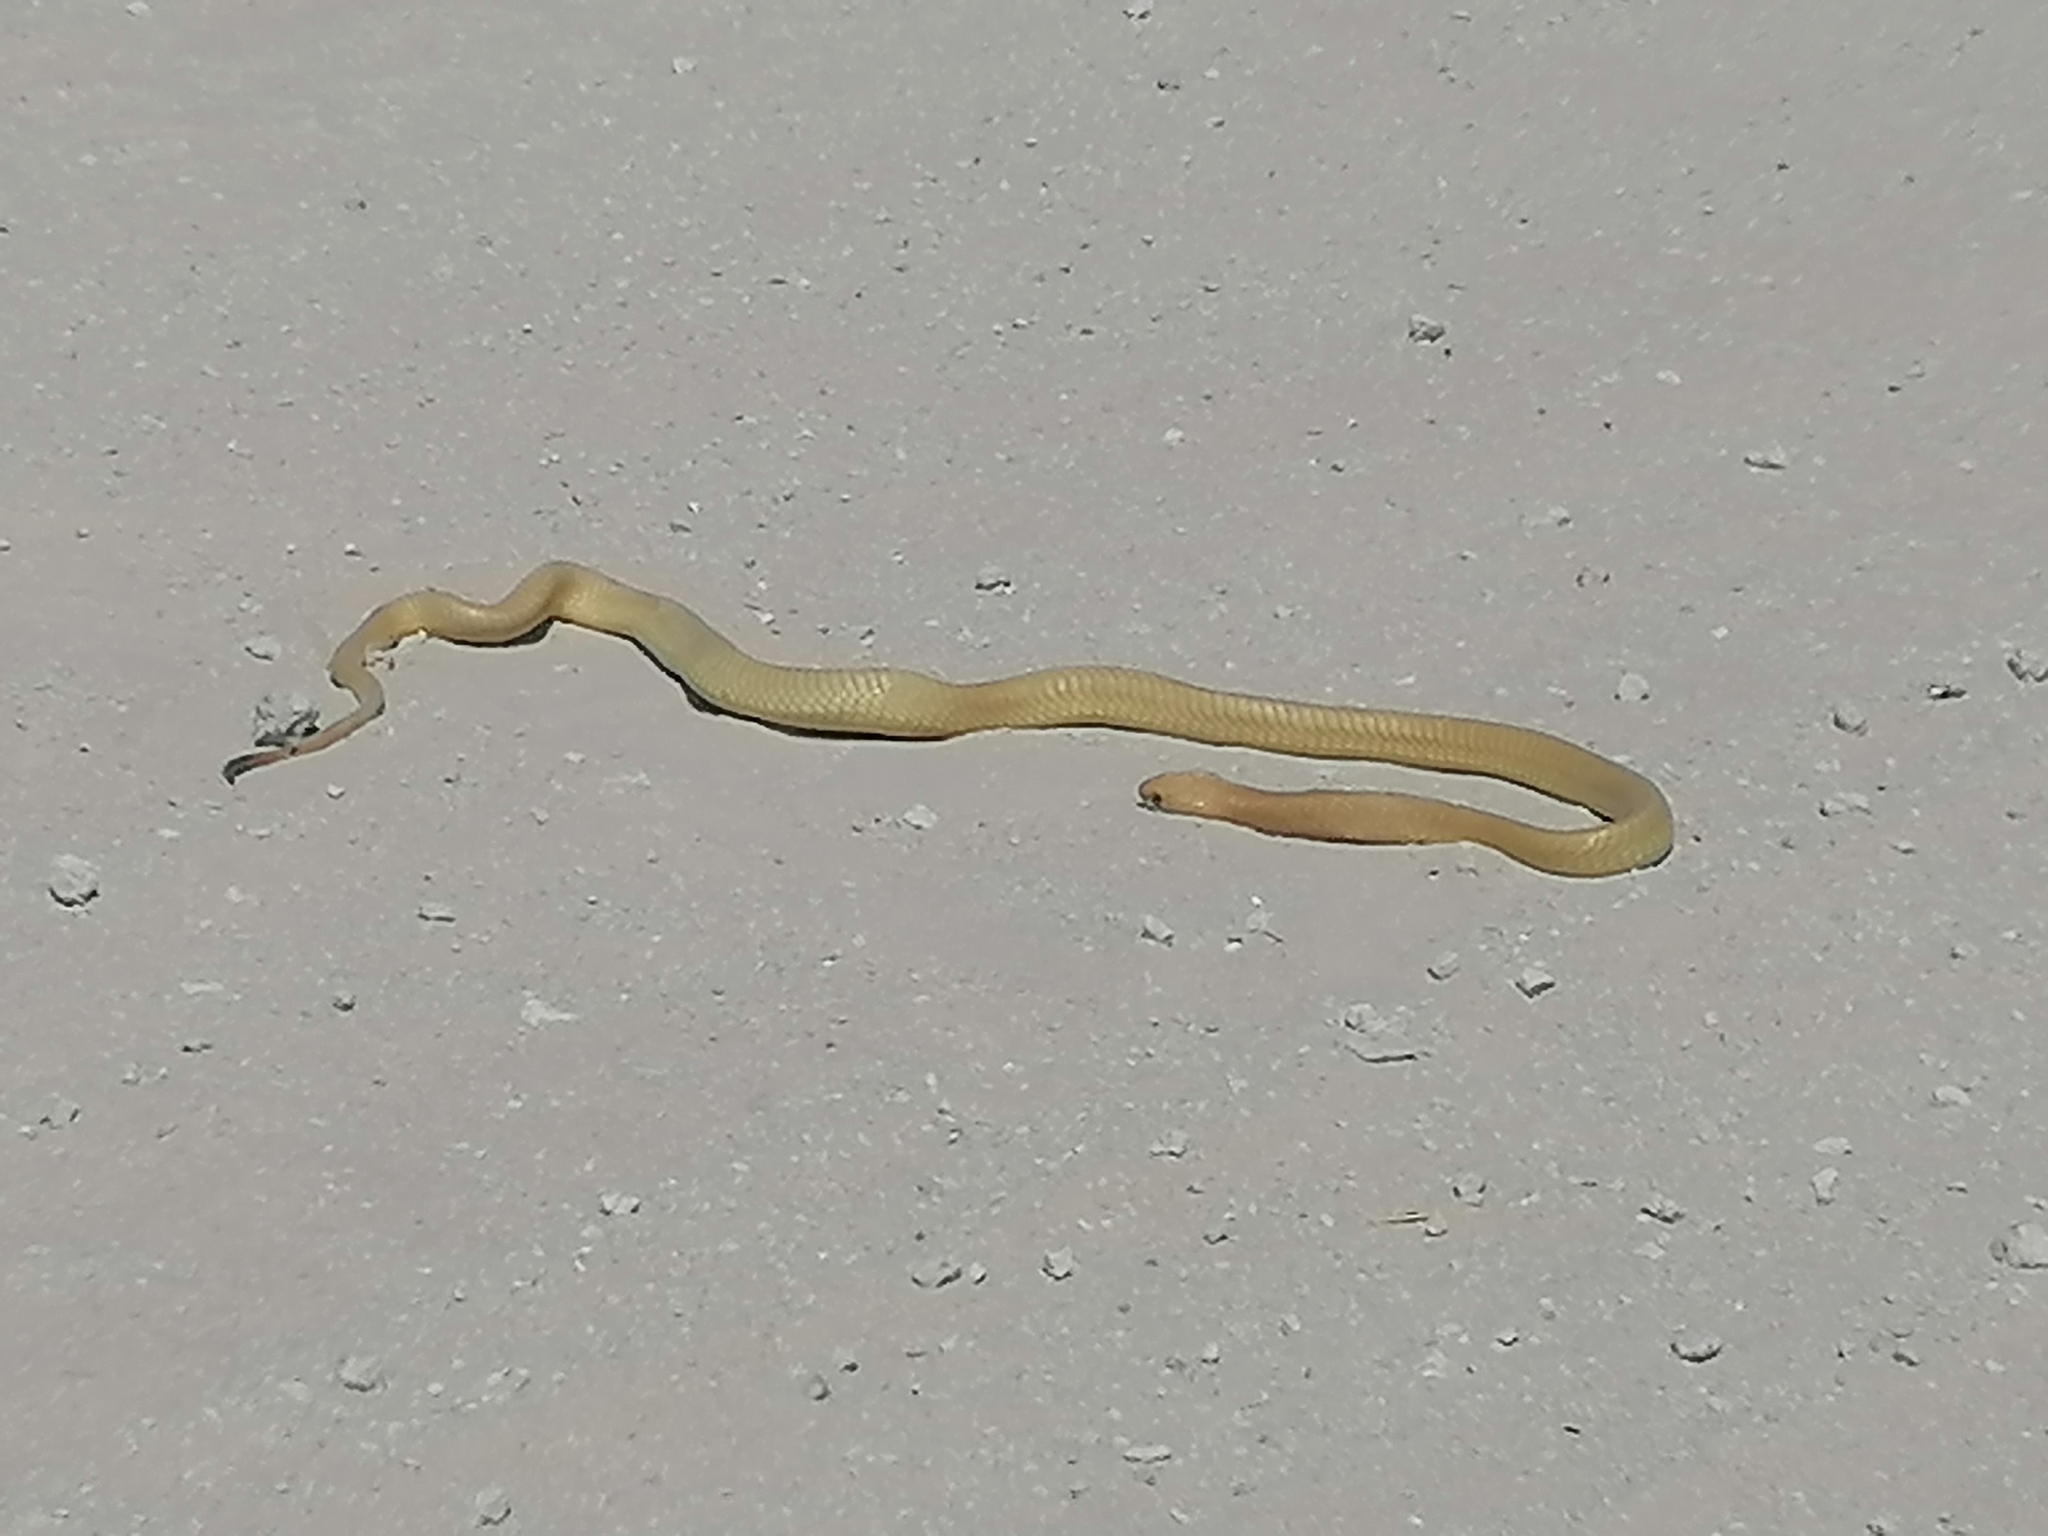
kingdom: Animalia
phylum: Chordata
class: Squamata
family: Elapidae
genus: Naja
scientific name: Naja nivea
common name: Cape cobra
